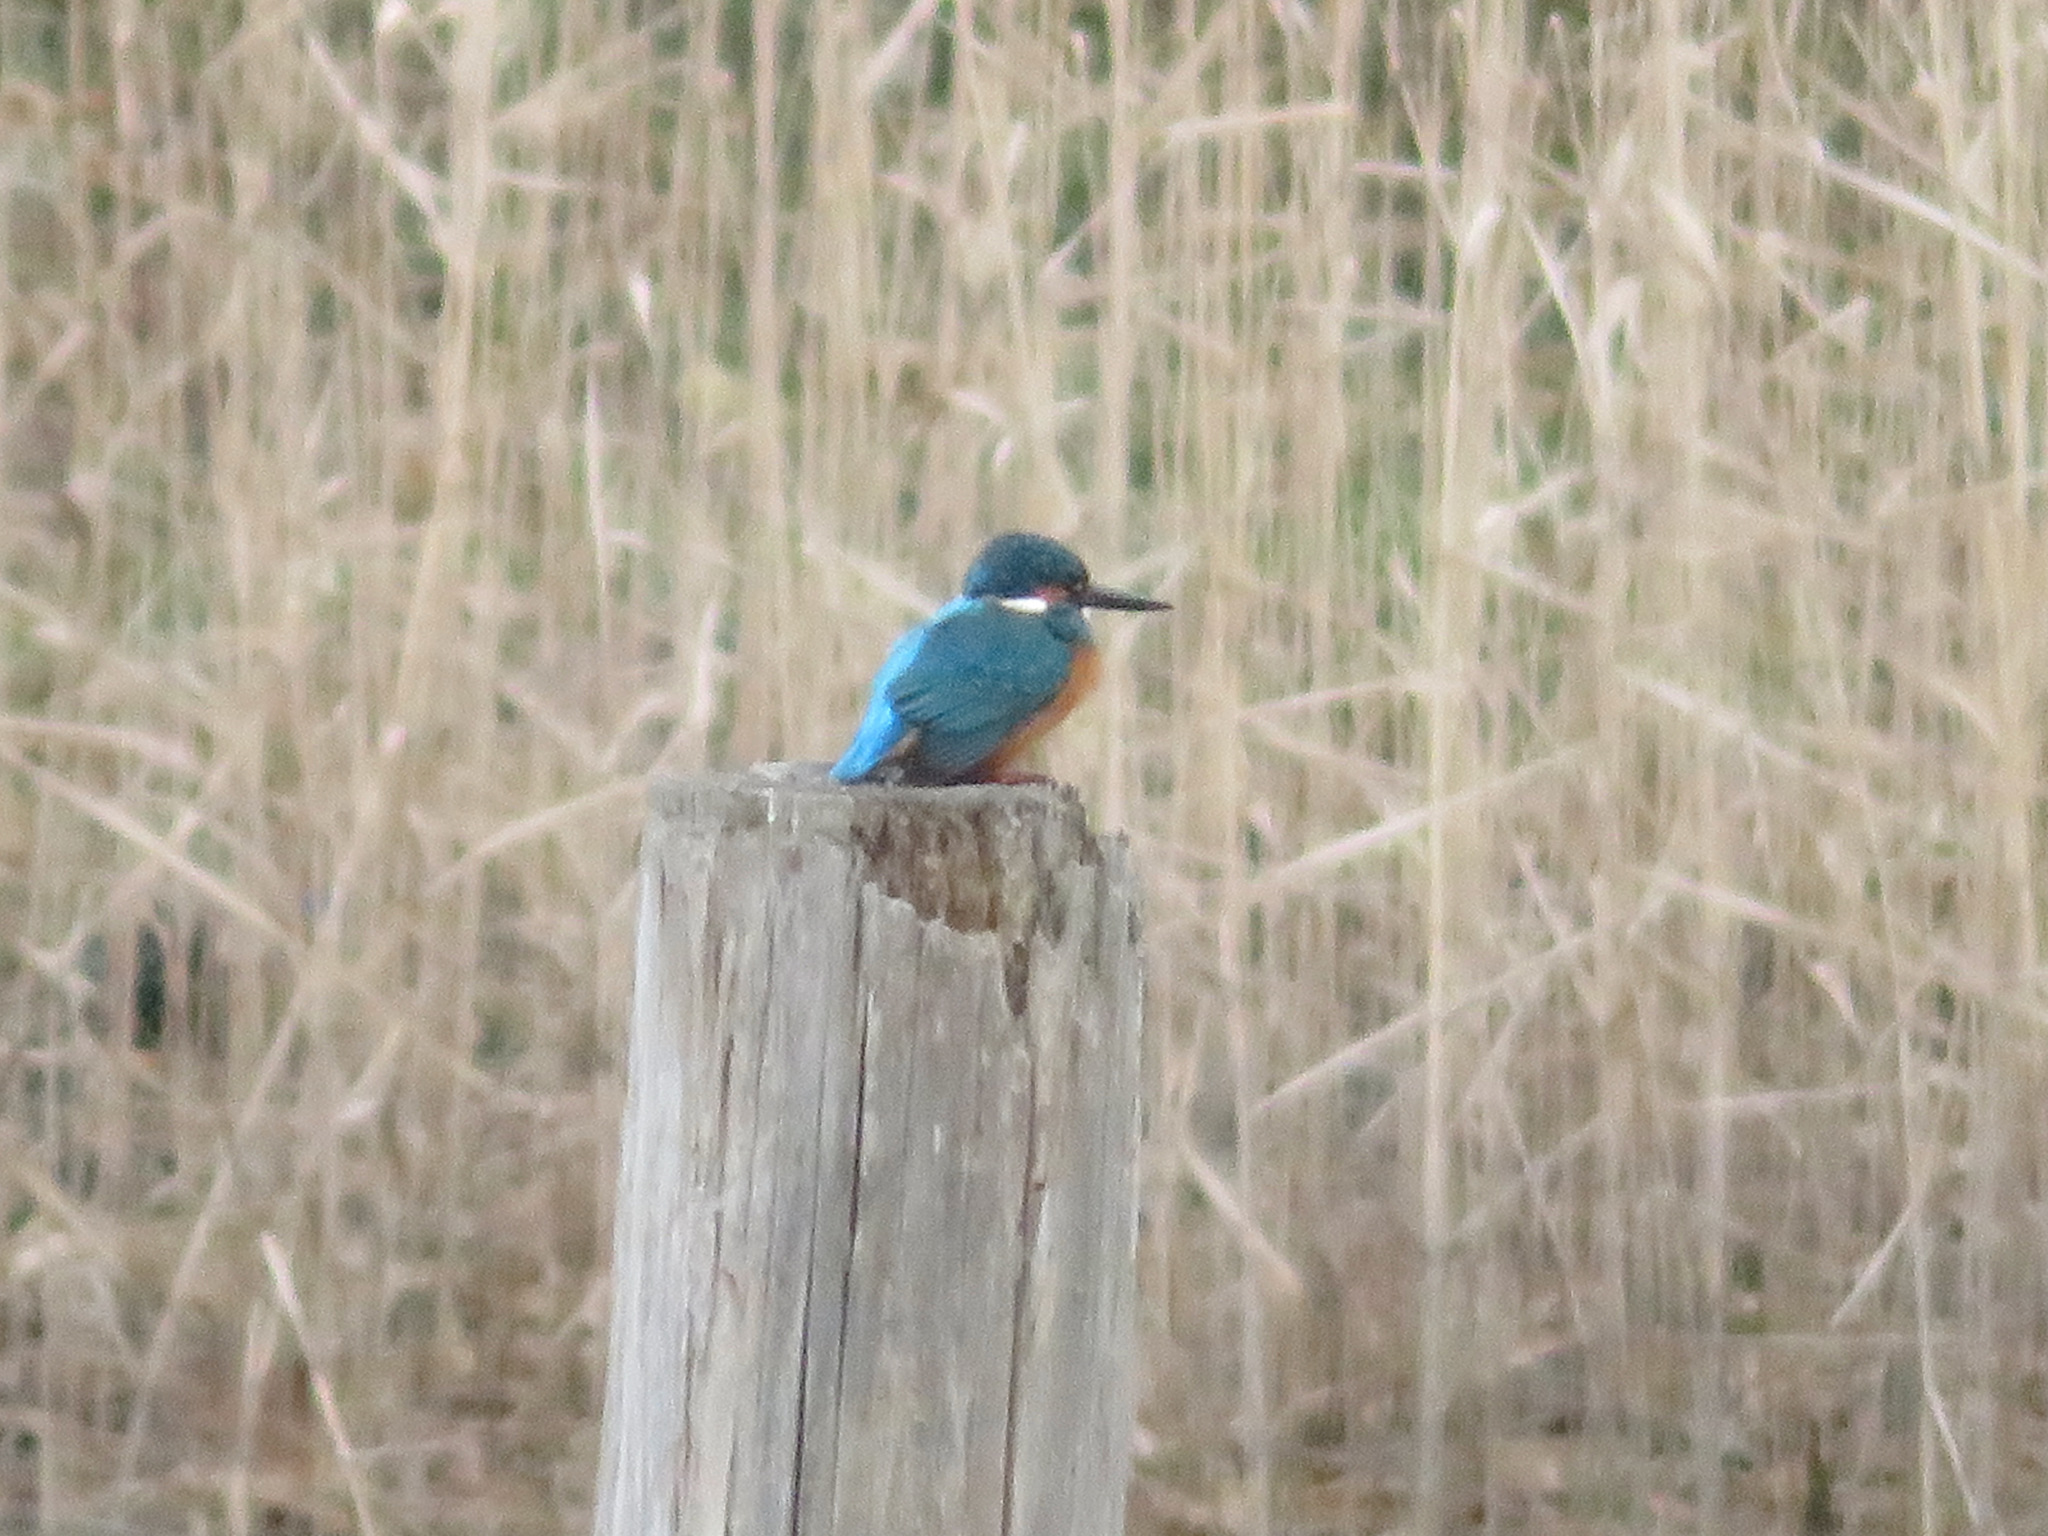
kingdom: Animalia
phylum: Chordata
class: Aves
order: Coraciiformes
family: Alcedinidae
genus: Alcedo
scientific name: Alcedo atthis
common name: Common kingfisher
